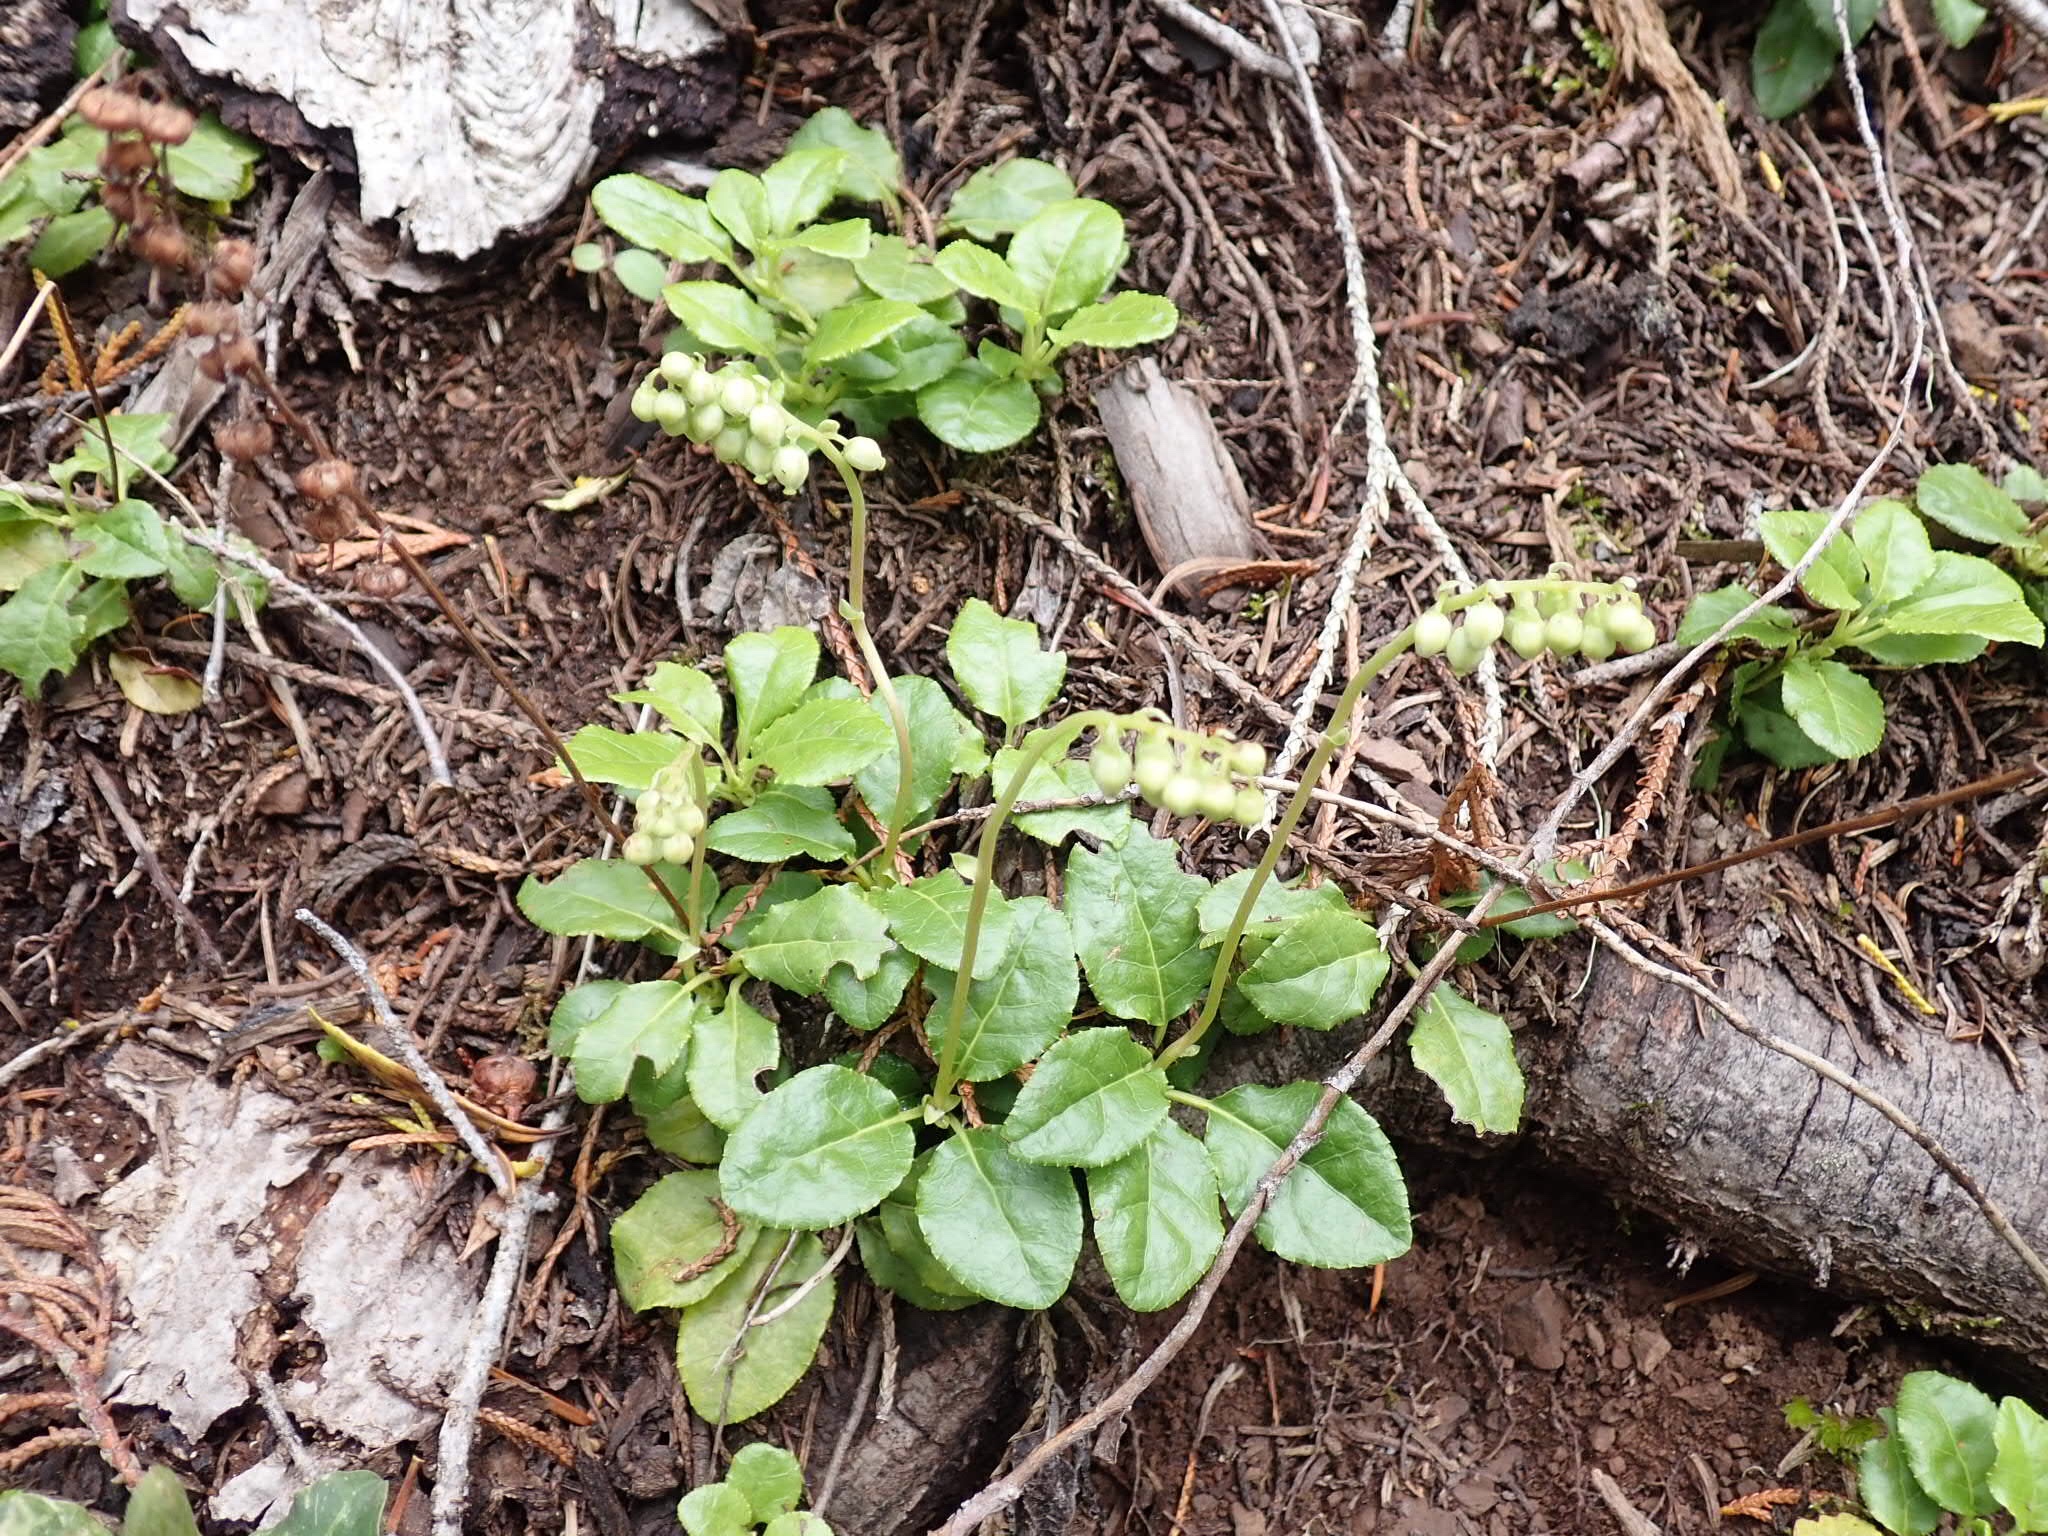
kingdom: Plantae
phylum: Tracheophyta
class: Magnoliopsida
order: Ericales
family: Ericaceae
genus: Orthilia
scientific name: Orthilia secunda
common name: One-sided orthilia
